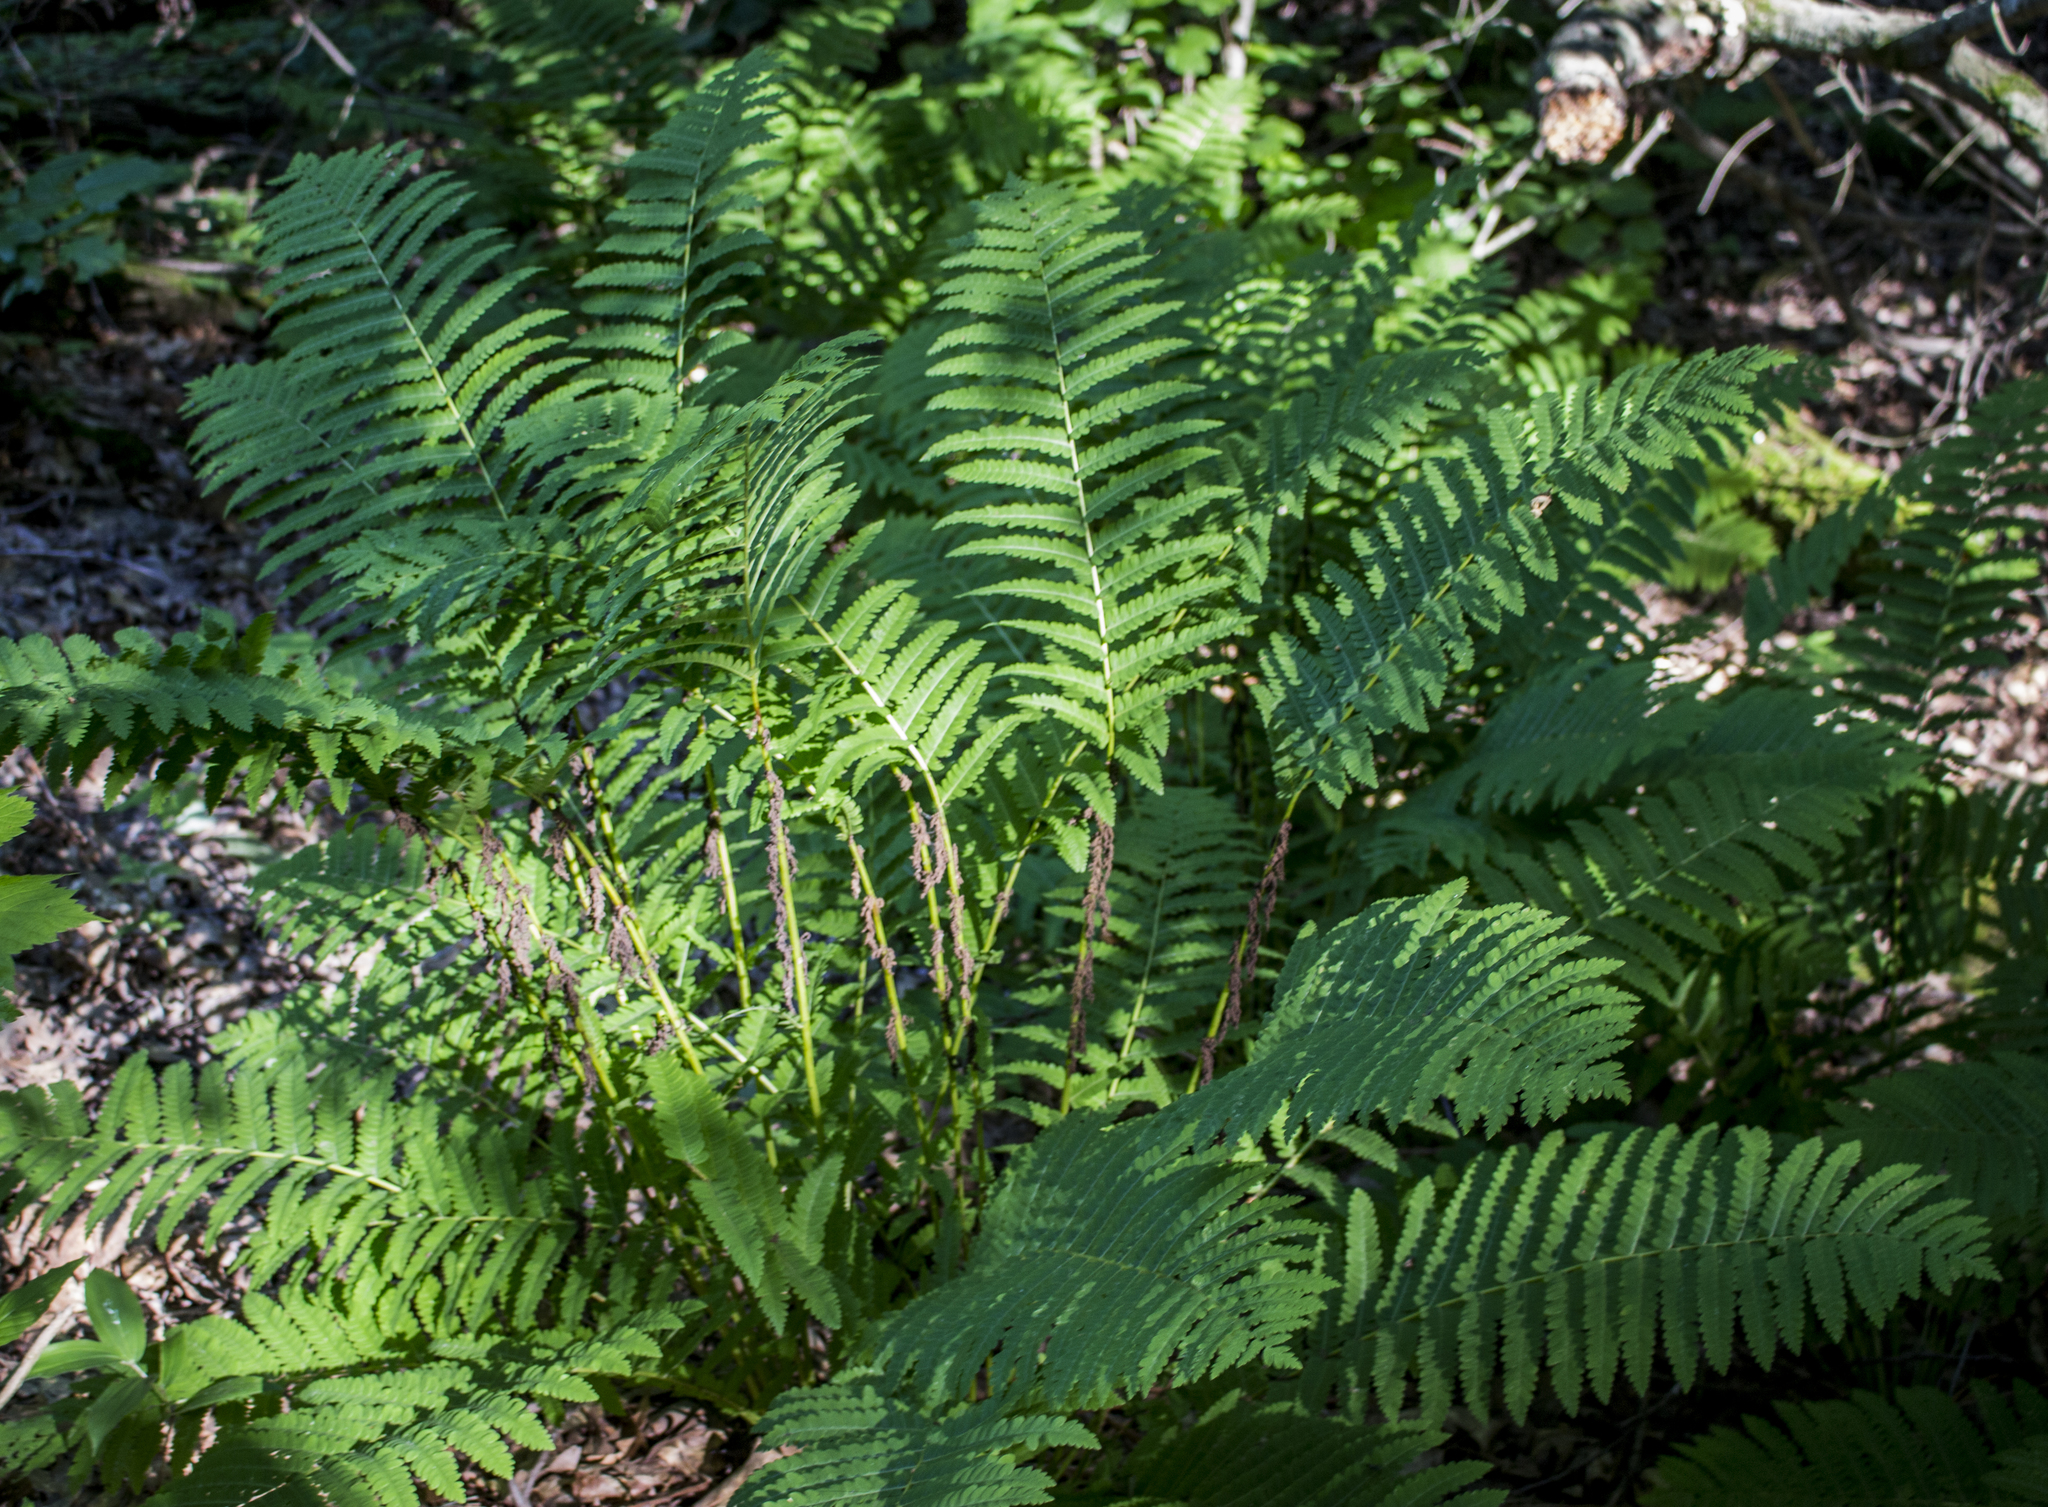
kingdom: Plantae
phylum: Tracheophyta
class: Polypodiopsida
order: Osmundales
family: Osmundaceae
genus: Claytosmunda
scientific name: Claytosmunda claytoniana
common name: Clayton's fern
